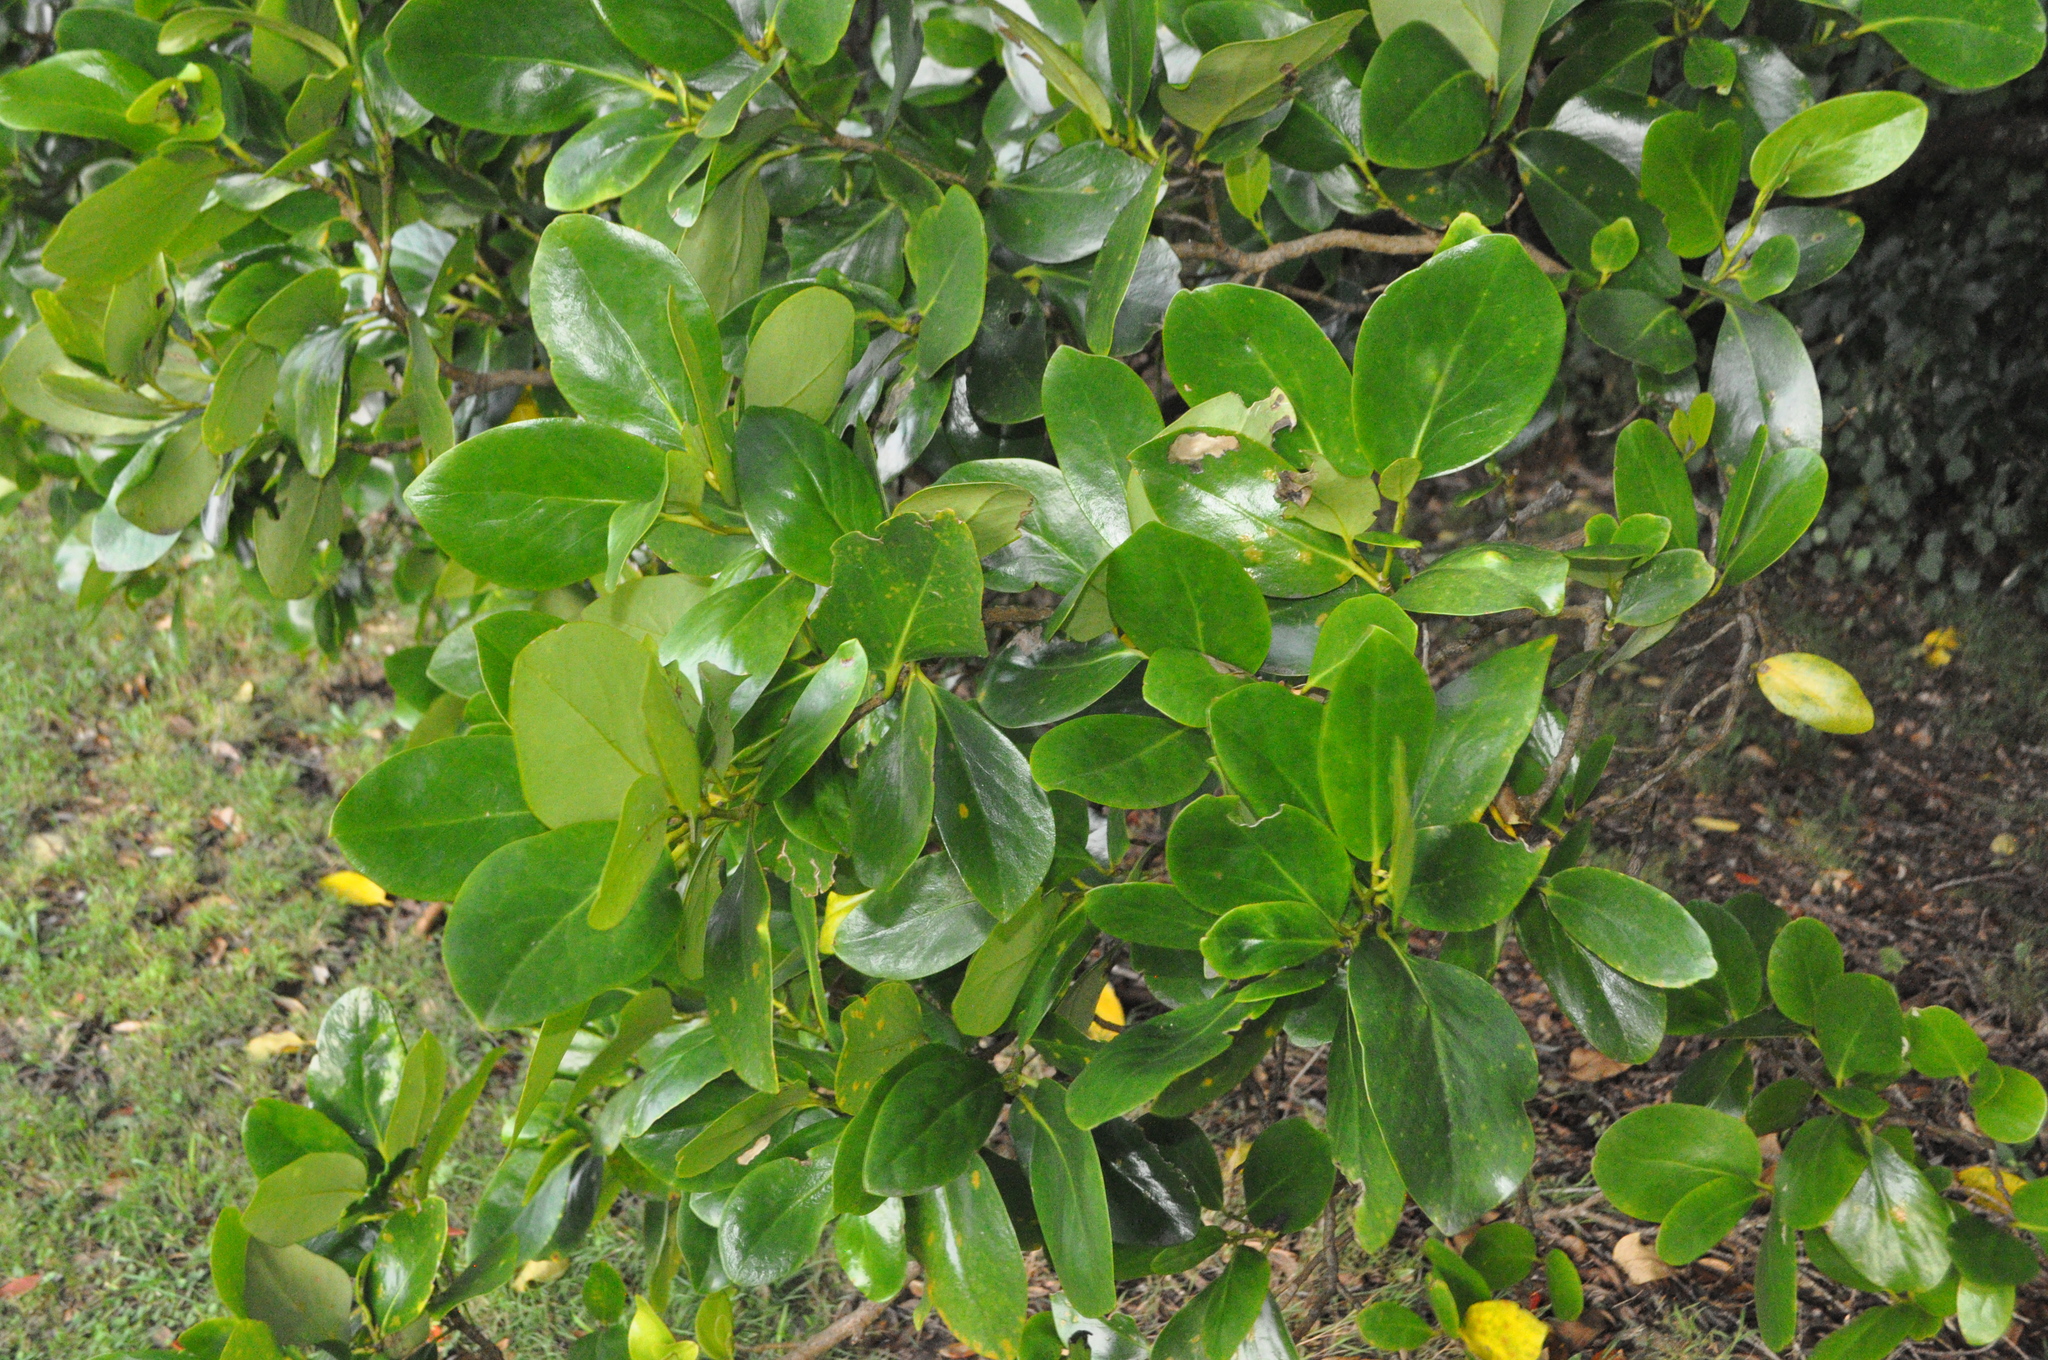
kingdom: Plantae
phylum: Tracheophyta
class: Magnoliopsida
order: Apiales
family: Griseliniaceae
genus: Griselinia
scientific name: Griselinia littoralis
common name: New zealand broadleaf
